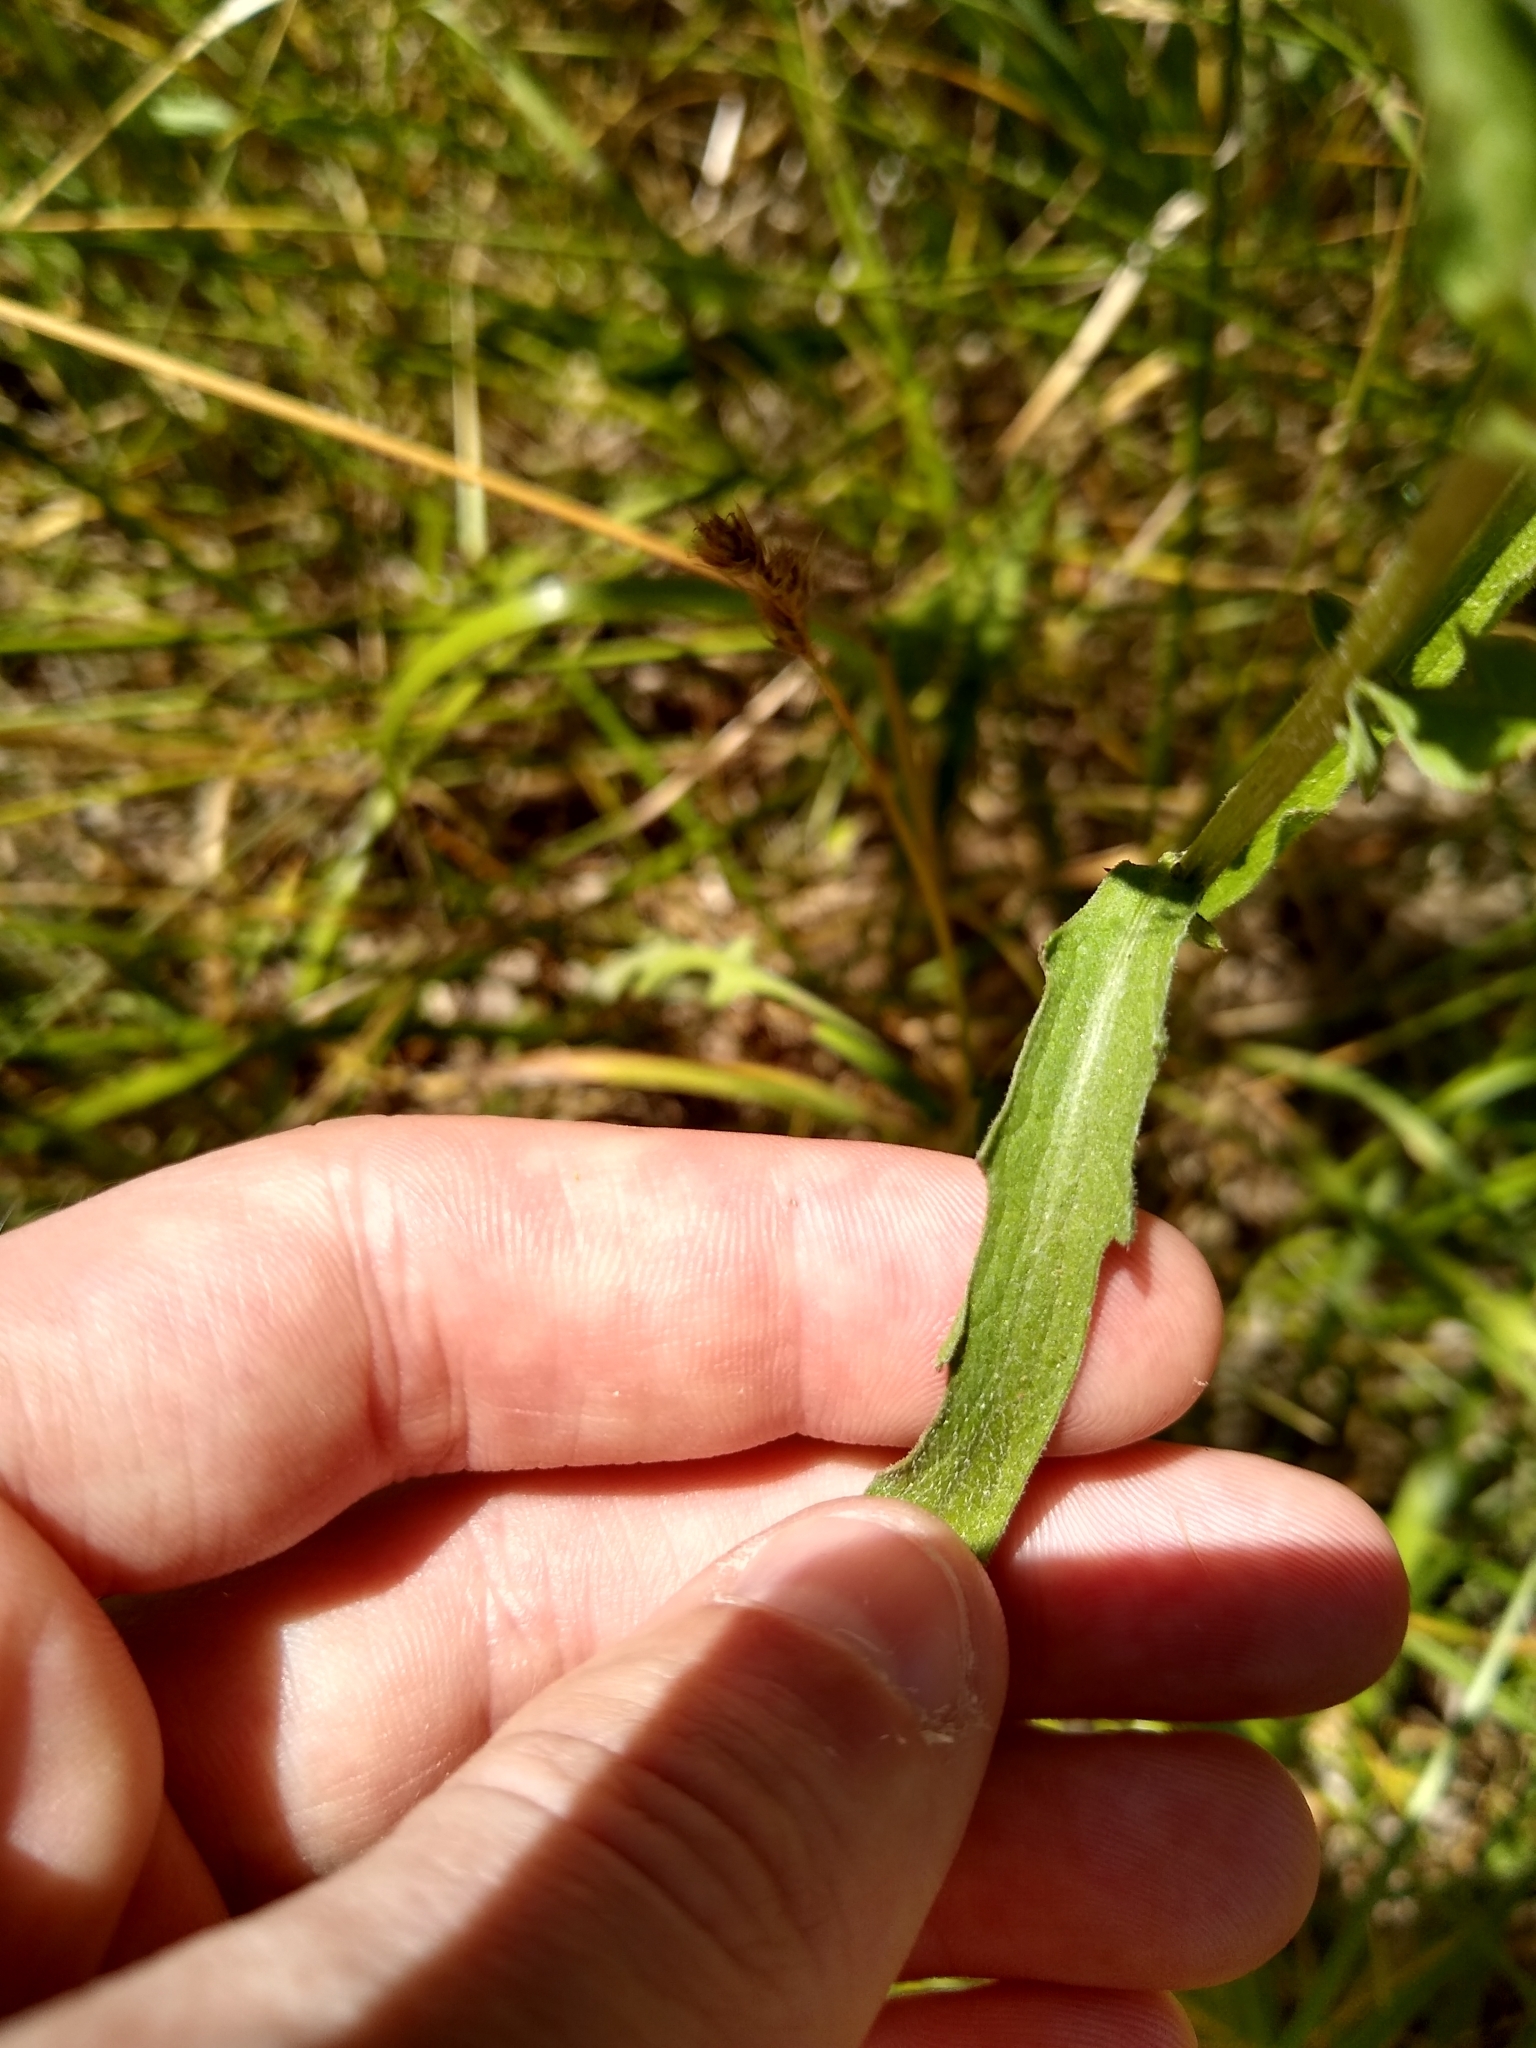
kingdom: Plantae
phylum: Tracheophyta
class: Magnoliopsida
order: Asterales
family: Asteraceae
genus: Centaurea
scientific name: Centaurea jacea
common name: Brown knapweed
